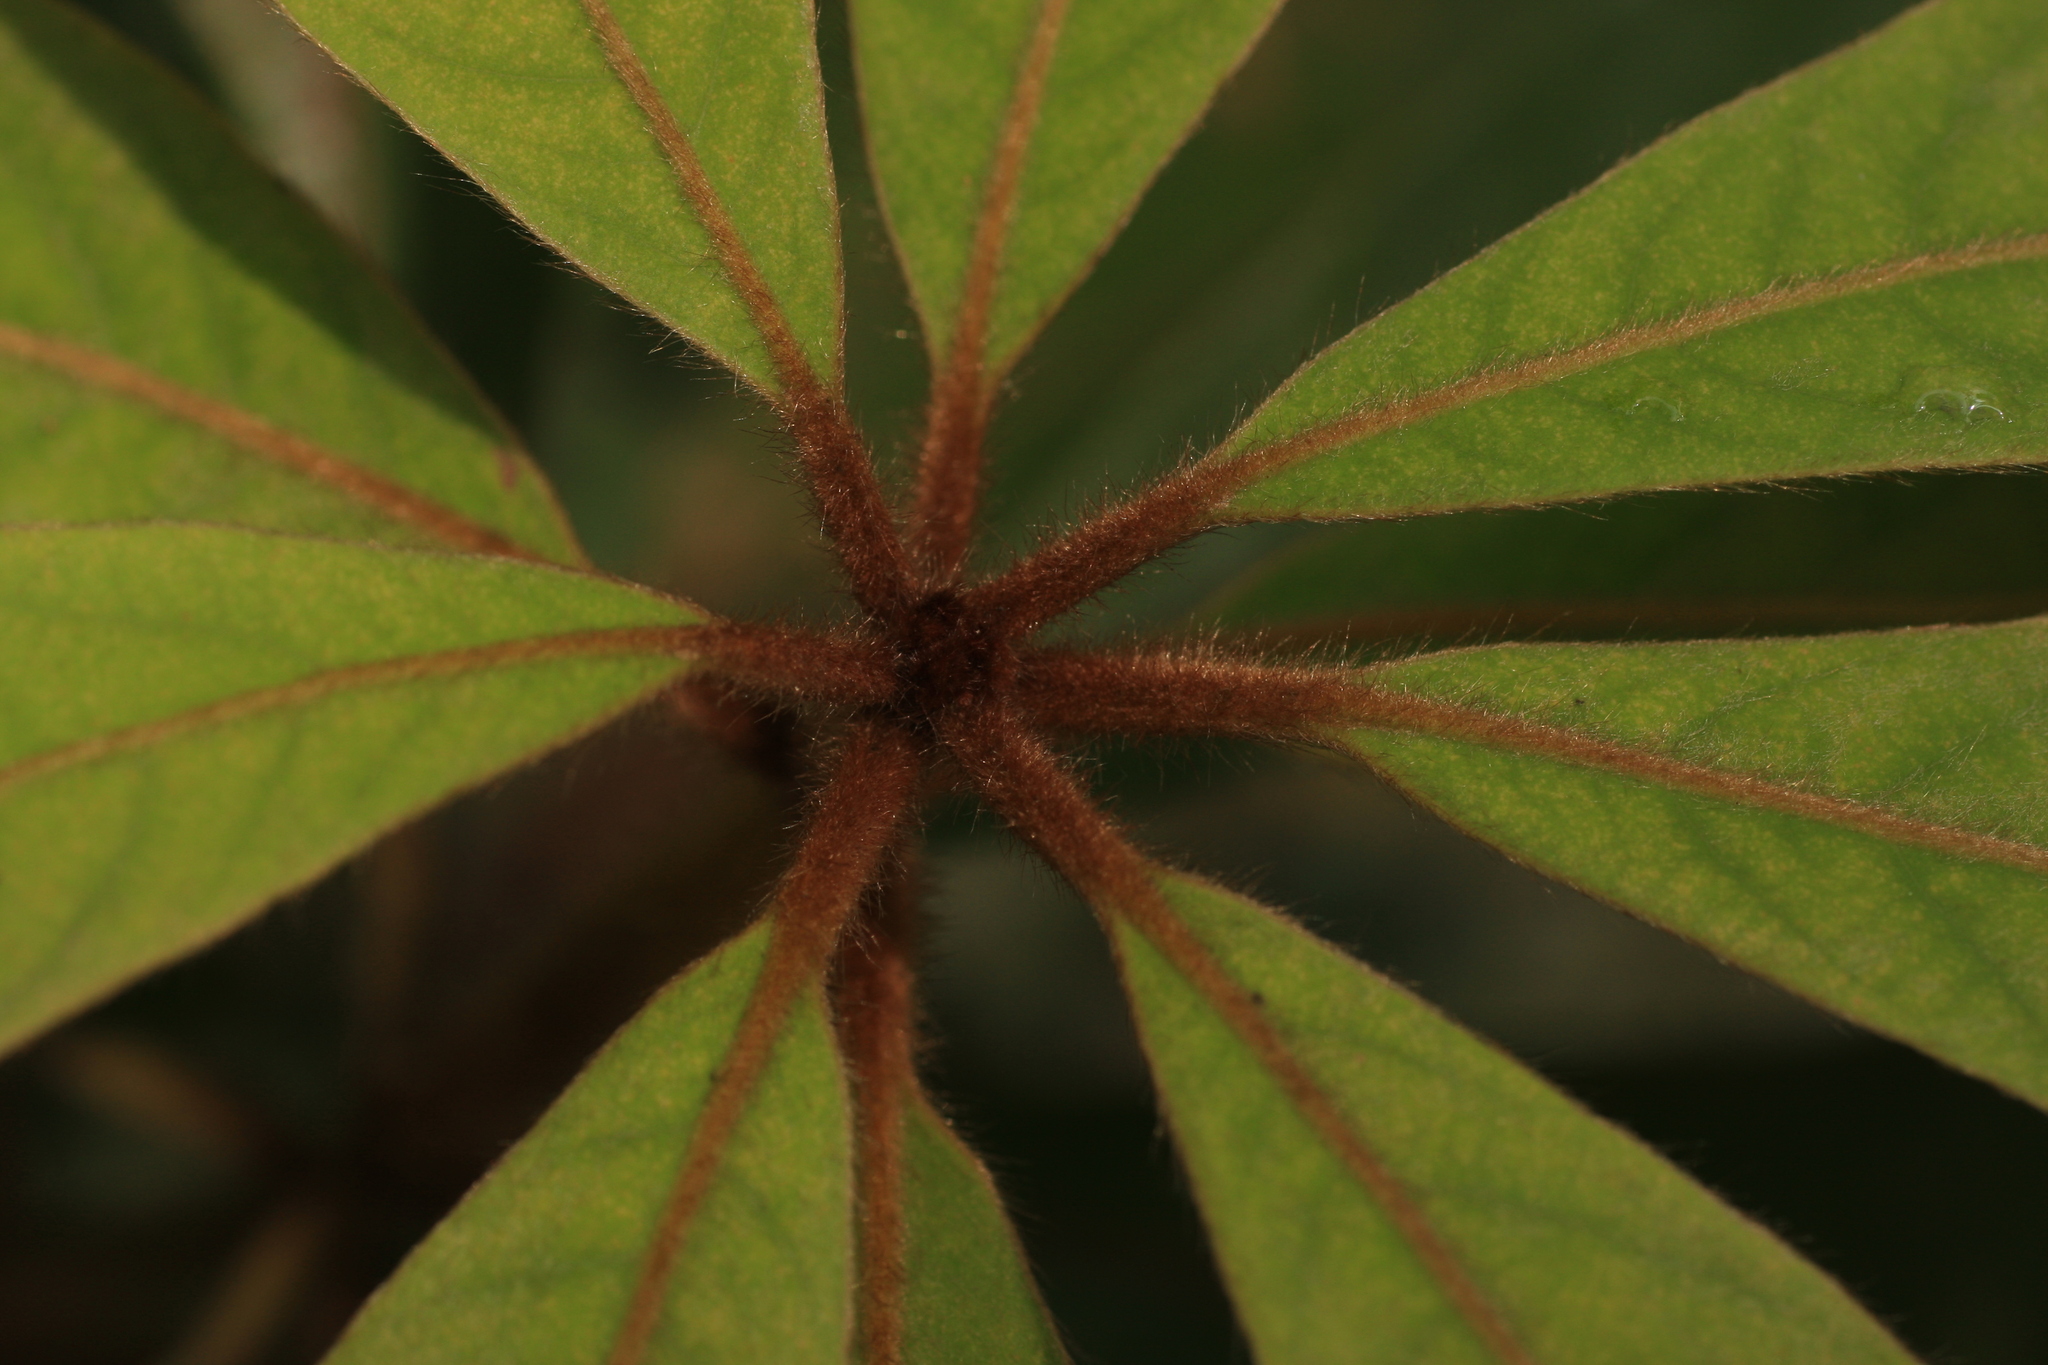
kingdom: Plantae
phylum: Tracheophyta
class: Magnoliopsida
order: Laurales
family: Lauraceae
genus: Actinodaphne
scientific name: Actinodaphne bourdillonii
